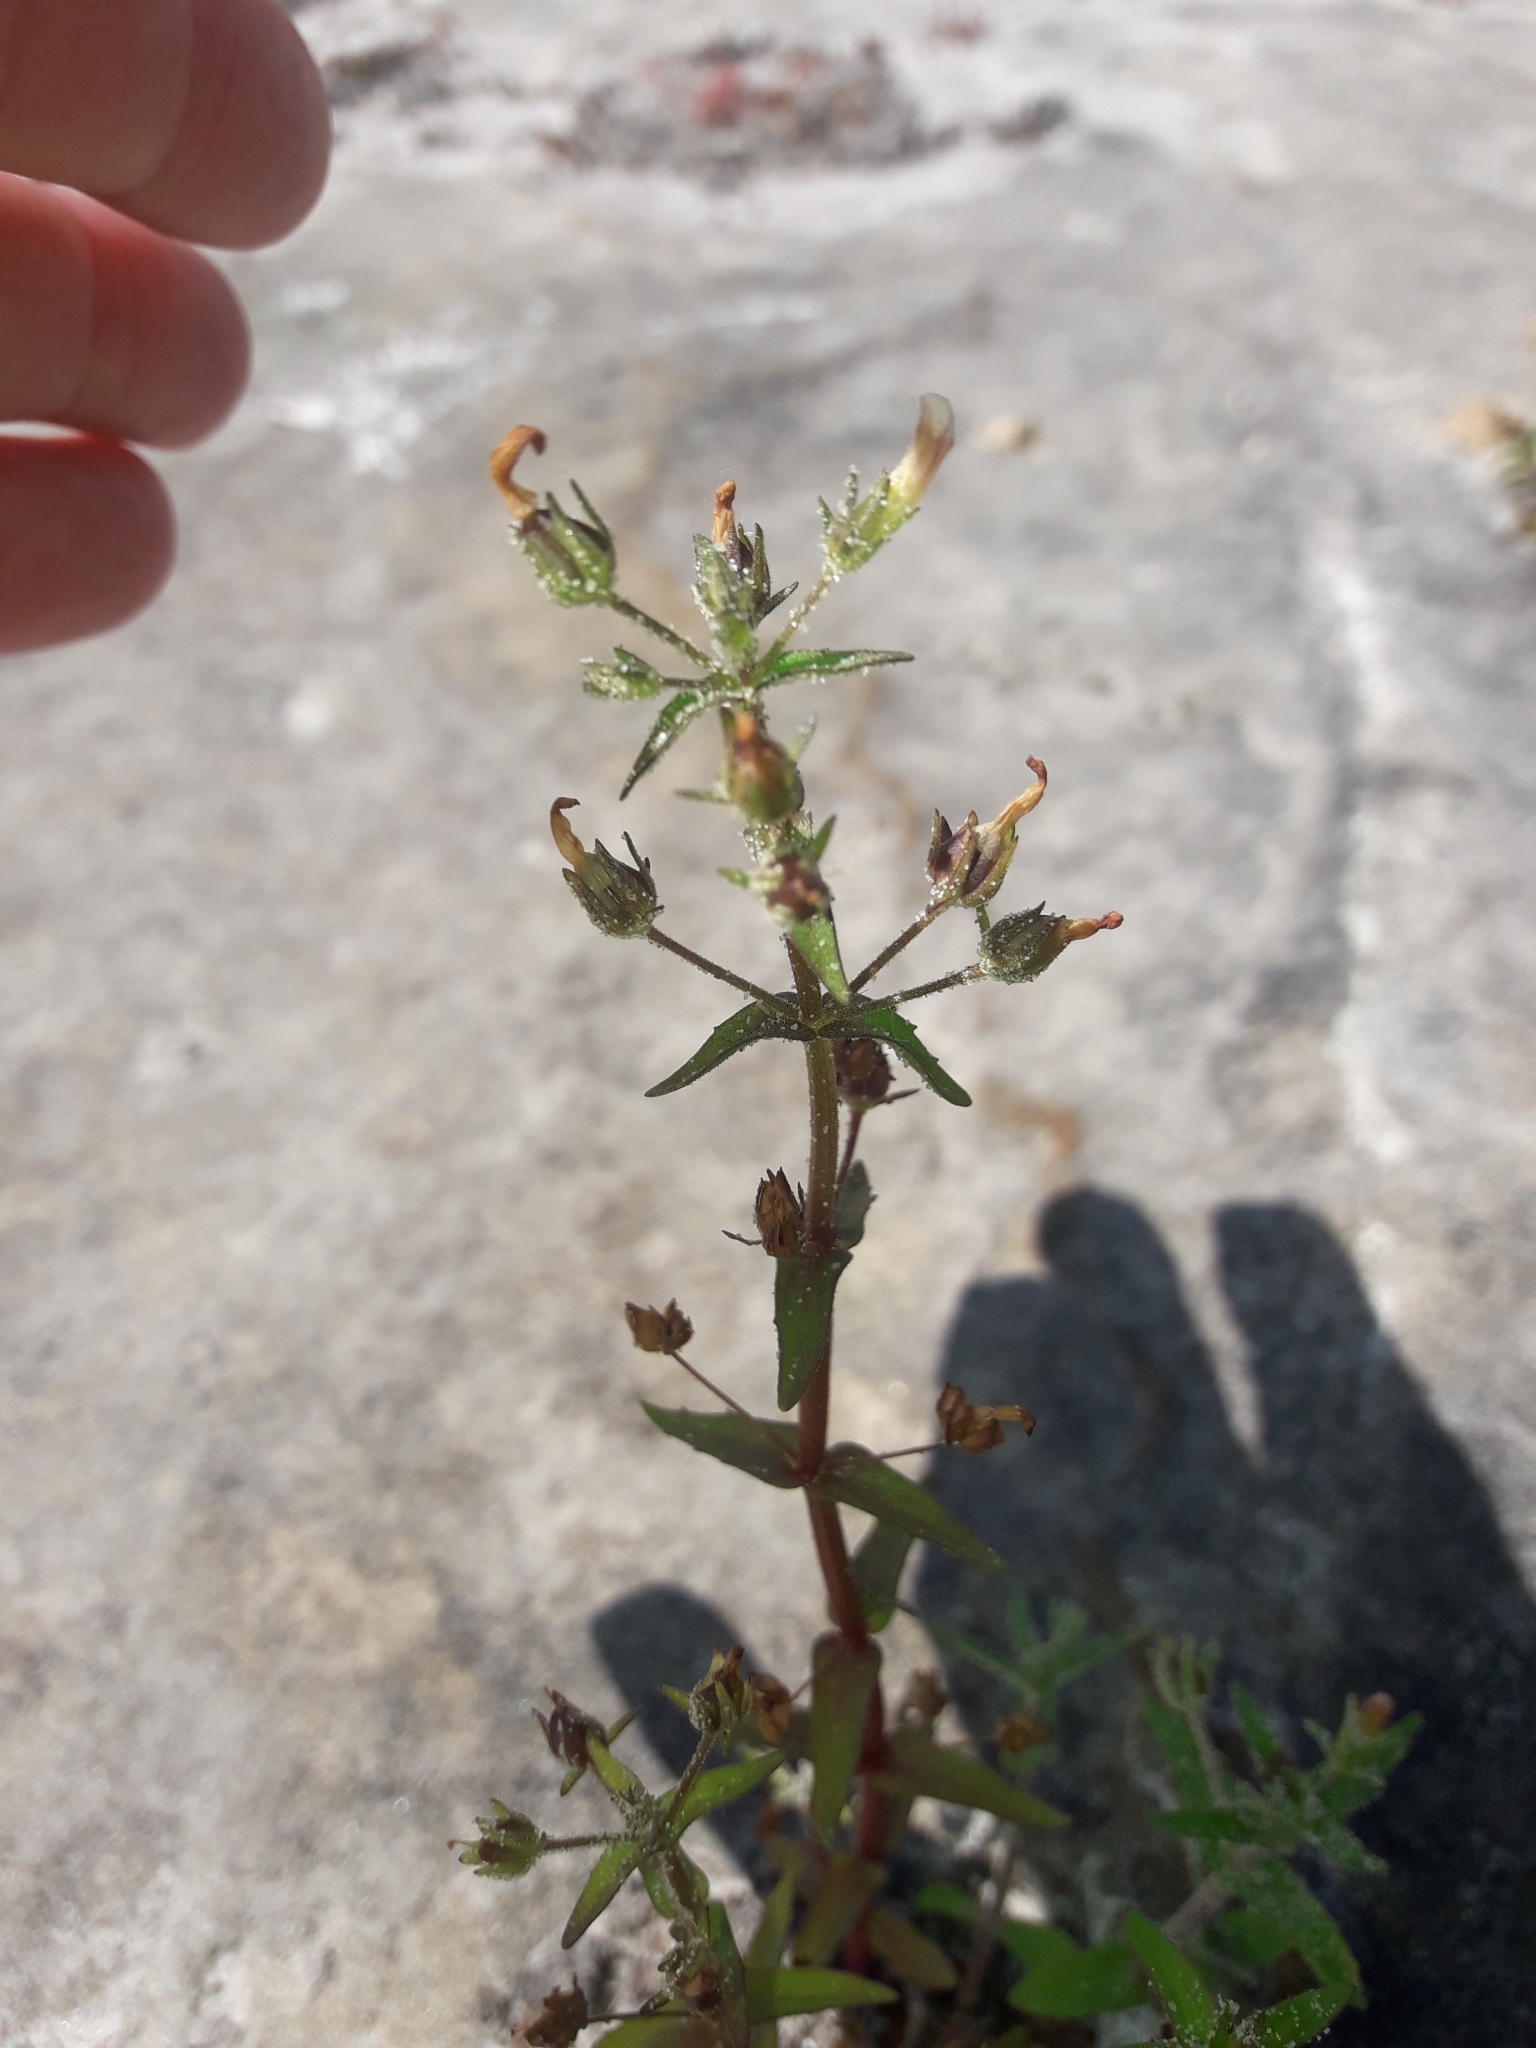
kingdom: Plantae
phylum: Tracheophyta
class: Magnoliopsida
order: Lamiales
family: Plantaginaceae
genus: Gratiola
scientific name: Gratiola pedunculata
